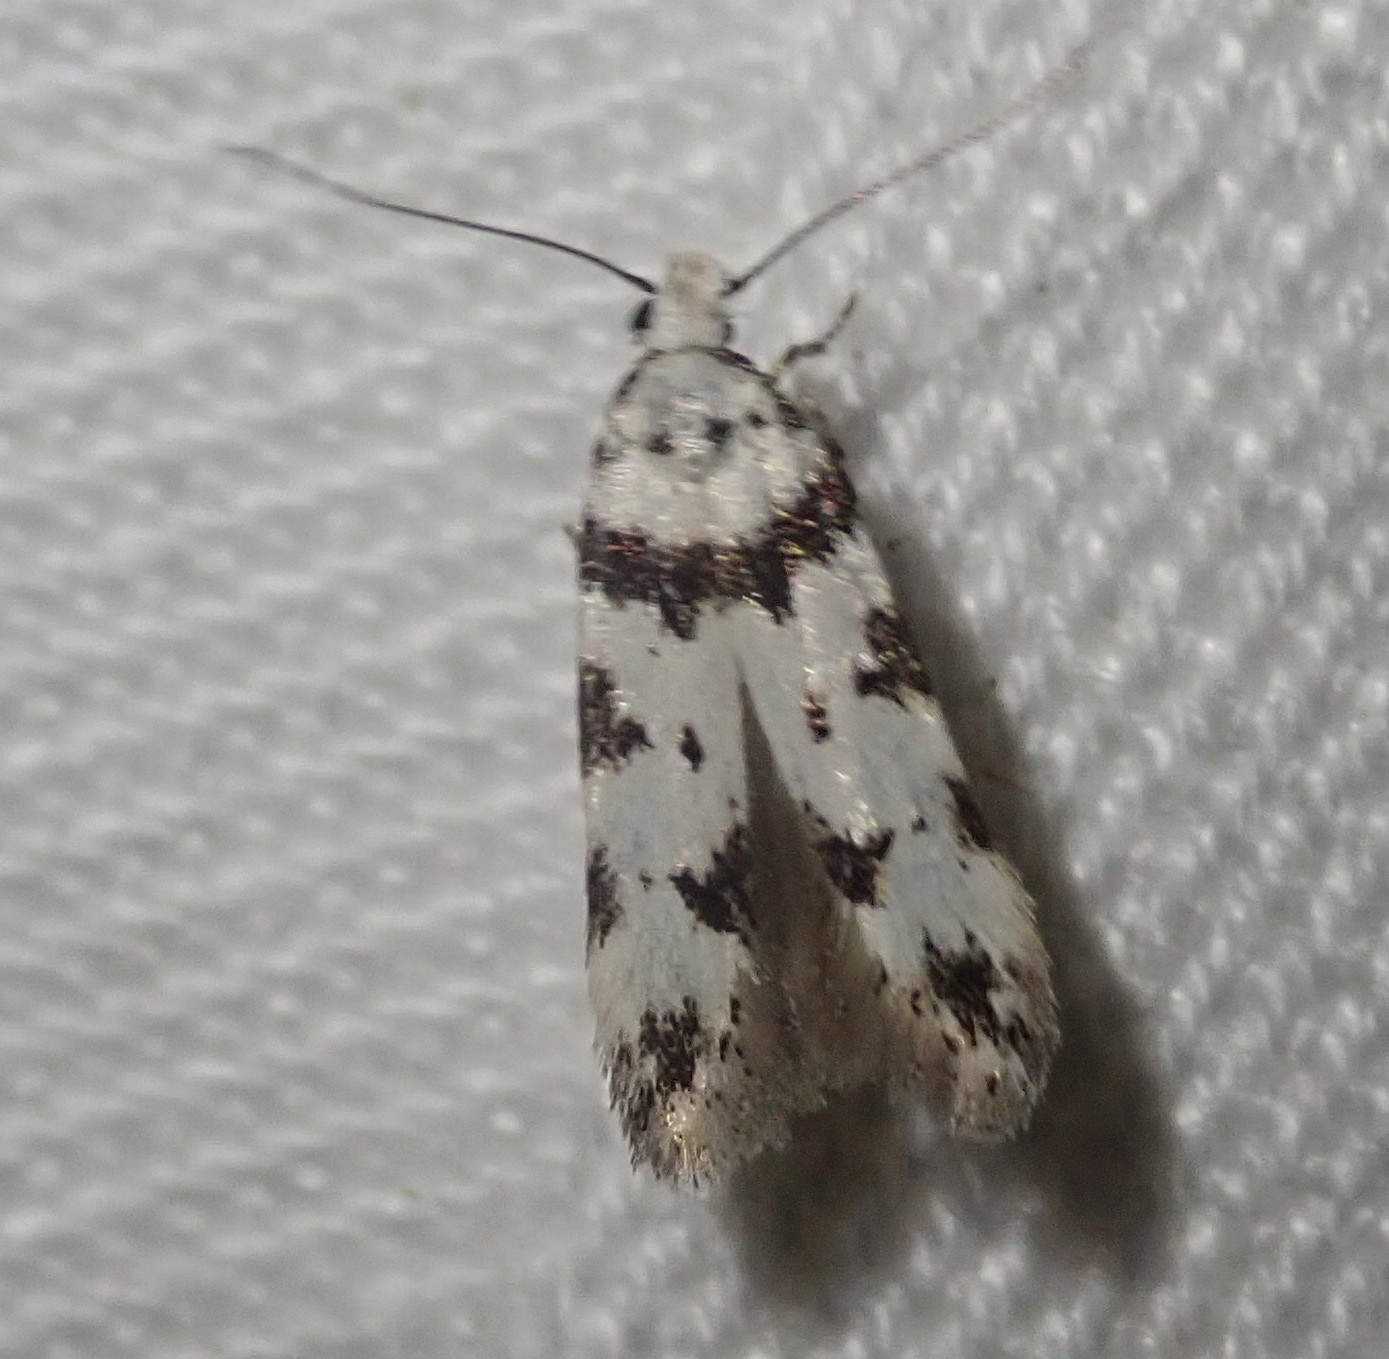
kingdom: Animalia
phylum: Arthropoda
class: Insecta
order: Lepidoptera
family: Gelechiidae
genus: Pseudotelphusa
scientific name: Pseudotelphusa scalella
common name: Black-spotted groundling
